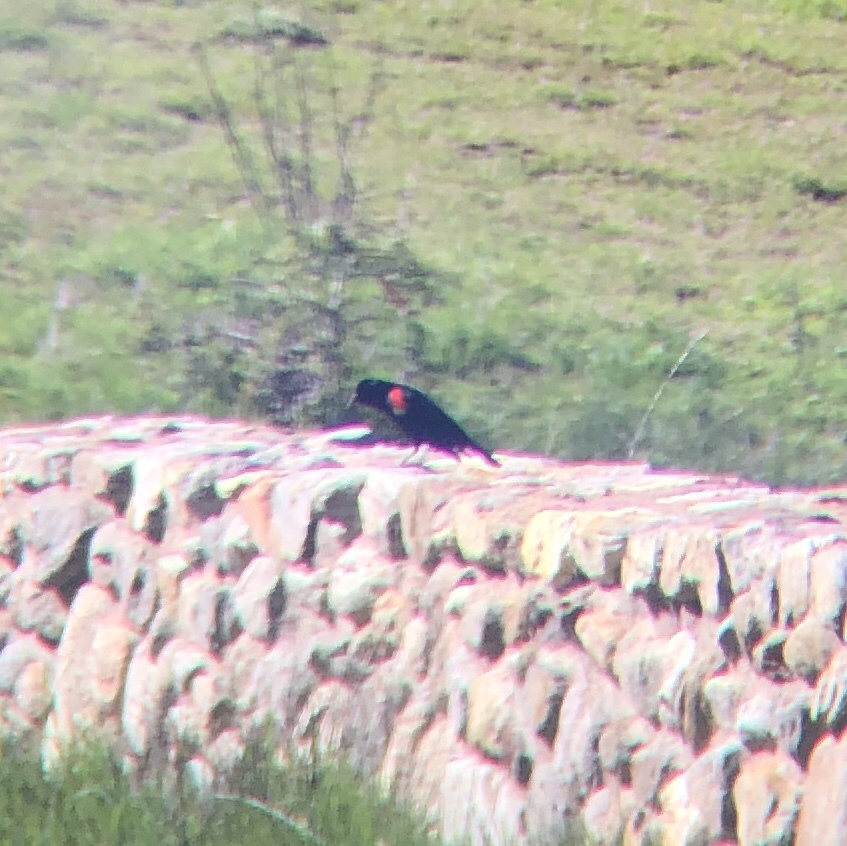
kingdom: Animalia
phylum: Chordata
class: Aves
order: Passeriformes
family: Icteridae
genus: Agelaius
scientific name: Agelaius phoeniceus
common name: Red-winged blackbird
